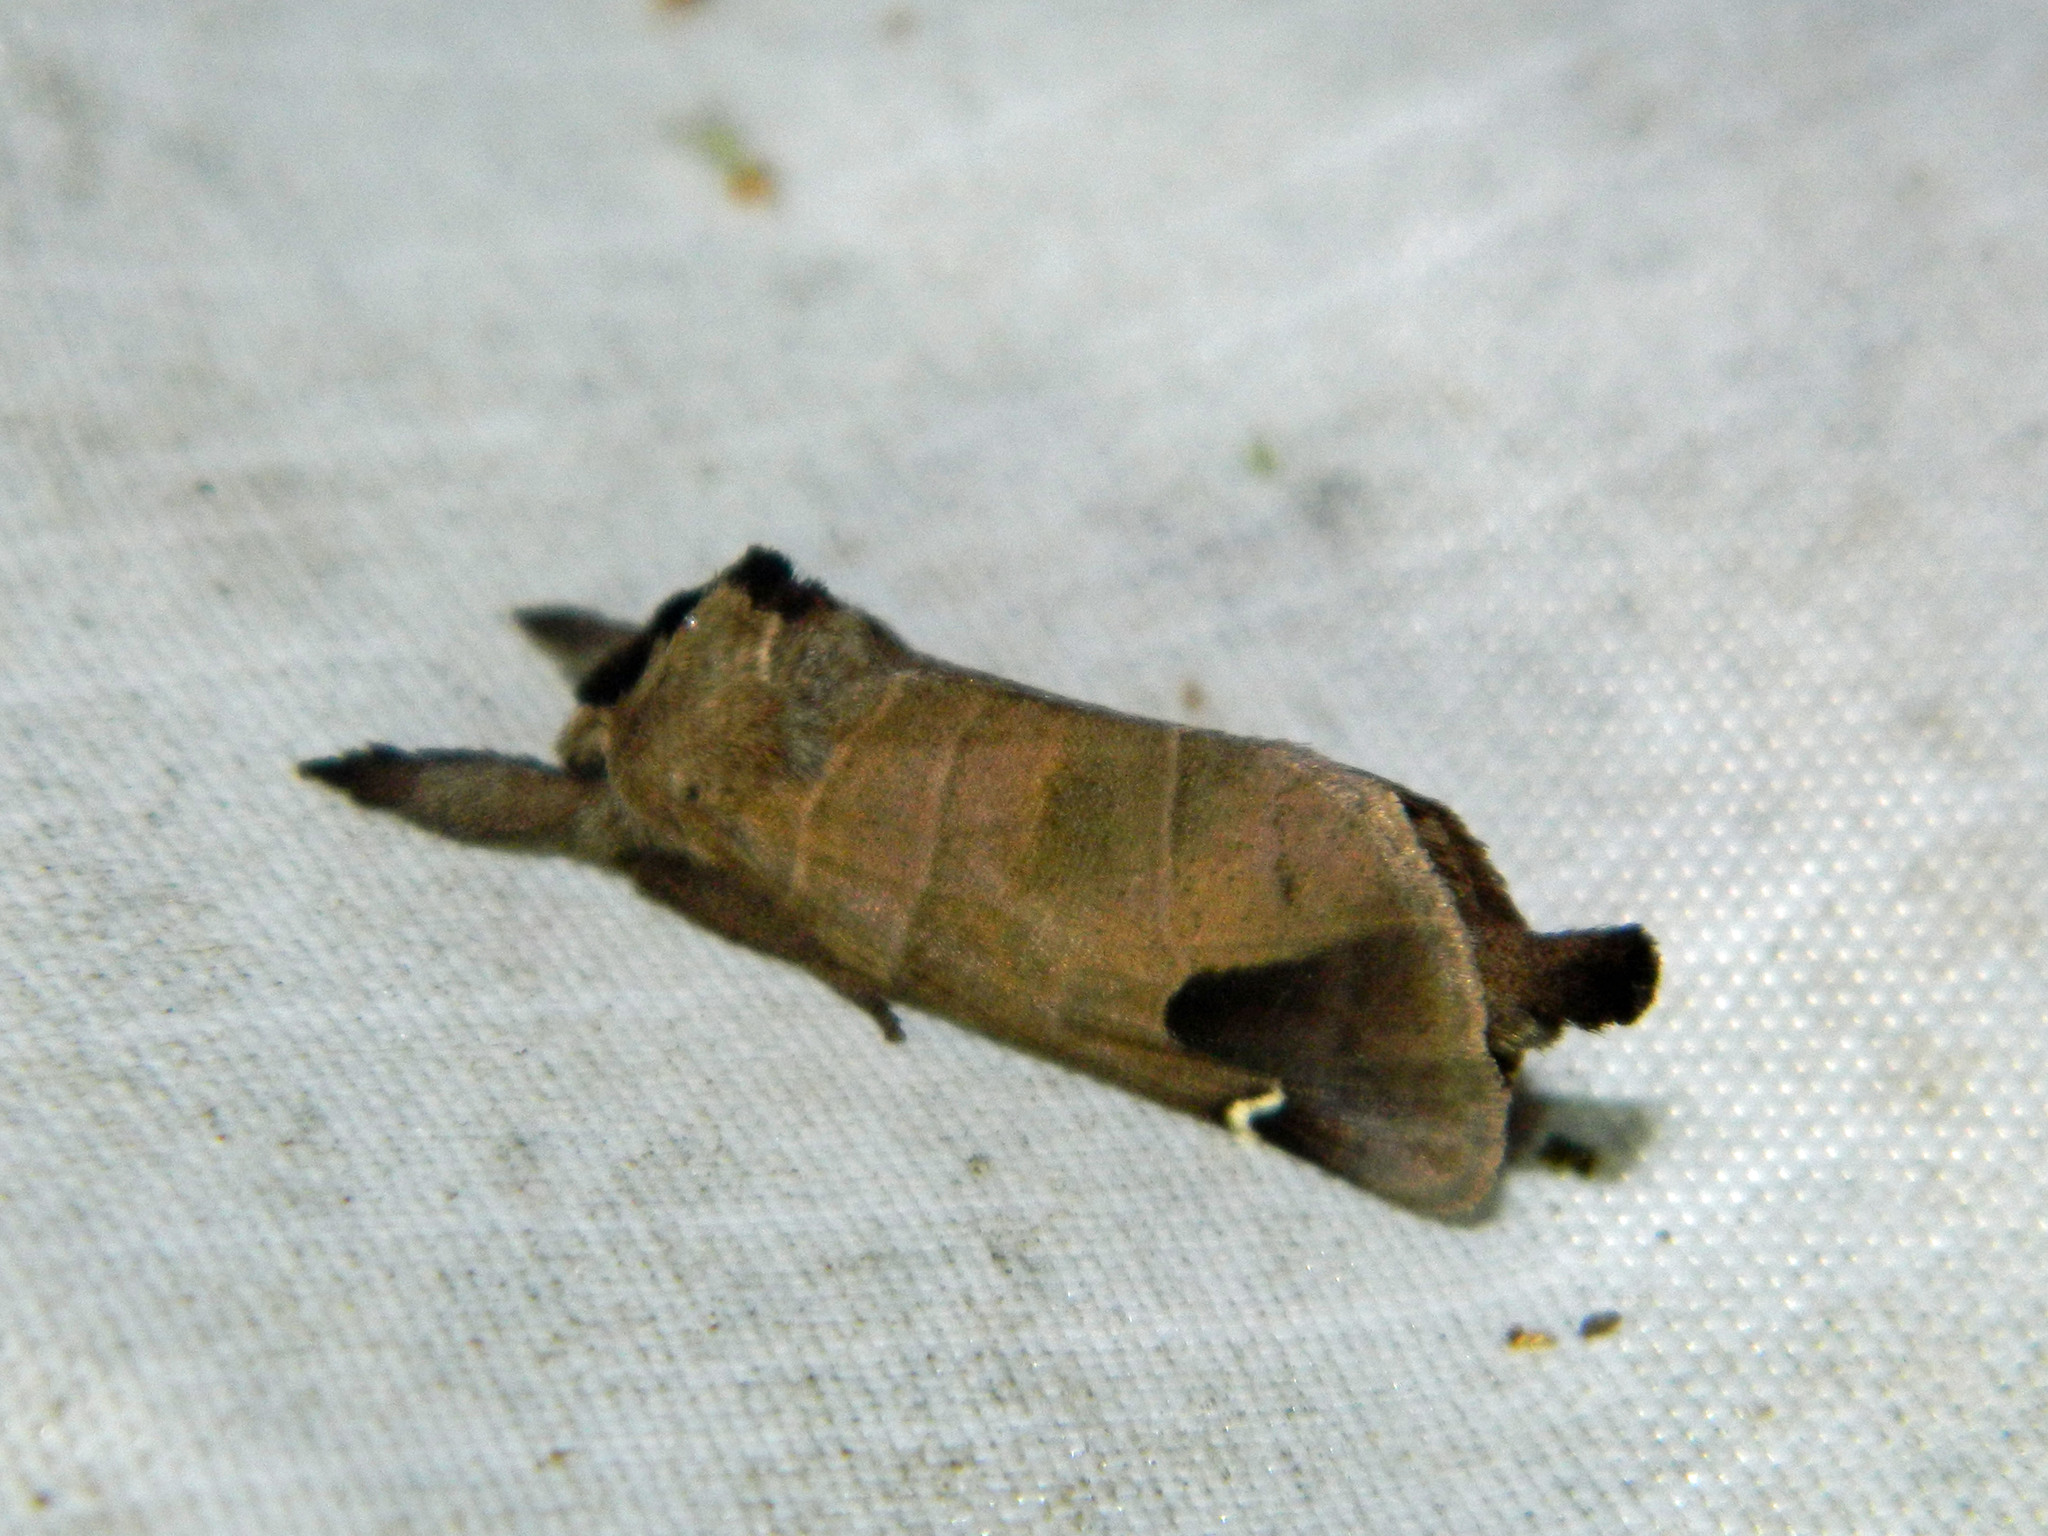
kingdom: Animalia
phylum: Arthropoda
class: Insecta
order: Lepidoptera
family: Notodontidae
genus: Clostera
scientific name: Clostera albosigma
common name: Sigmoid prominent
